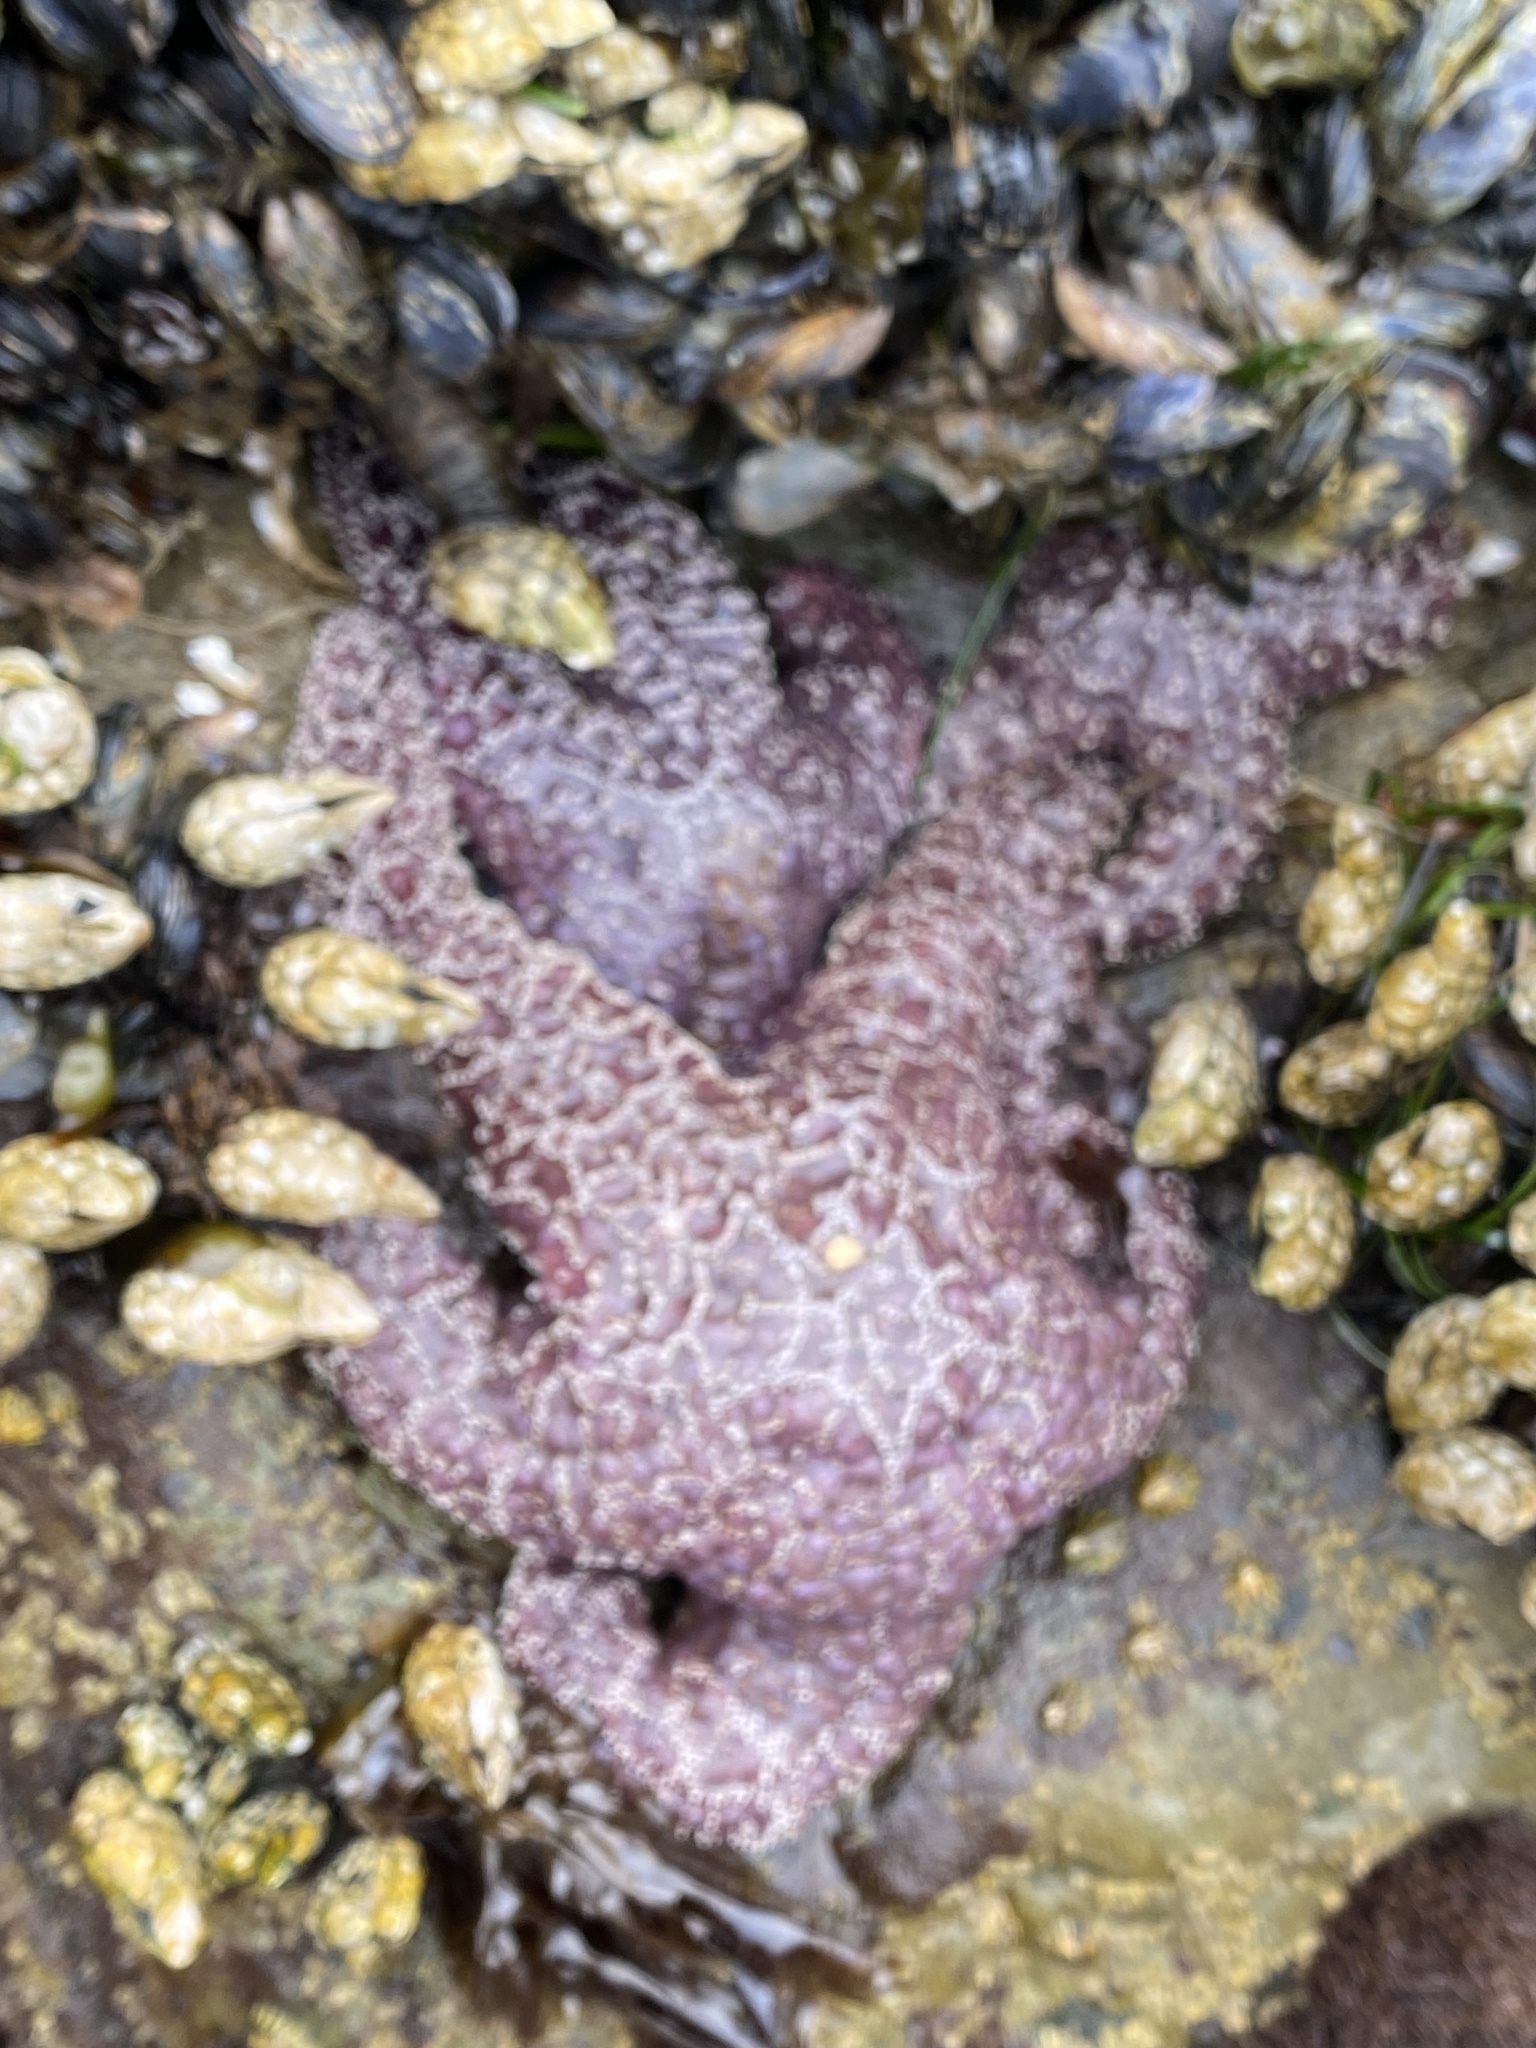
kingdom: Animalia
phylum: Echinodermata
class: Asteroidea
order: Forcipulatida
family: Asteriidae
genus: Pisaster
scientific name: Pisaster ochraceus
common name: Ochre stars
